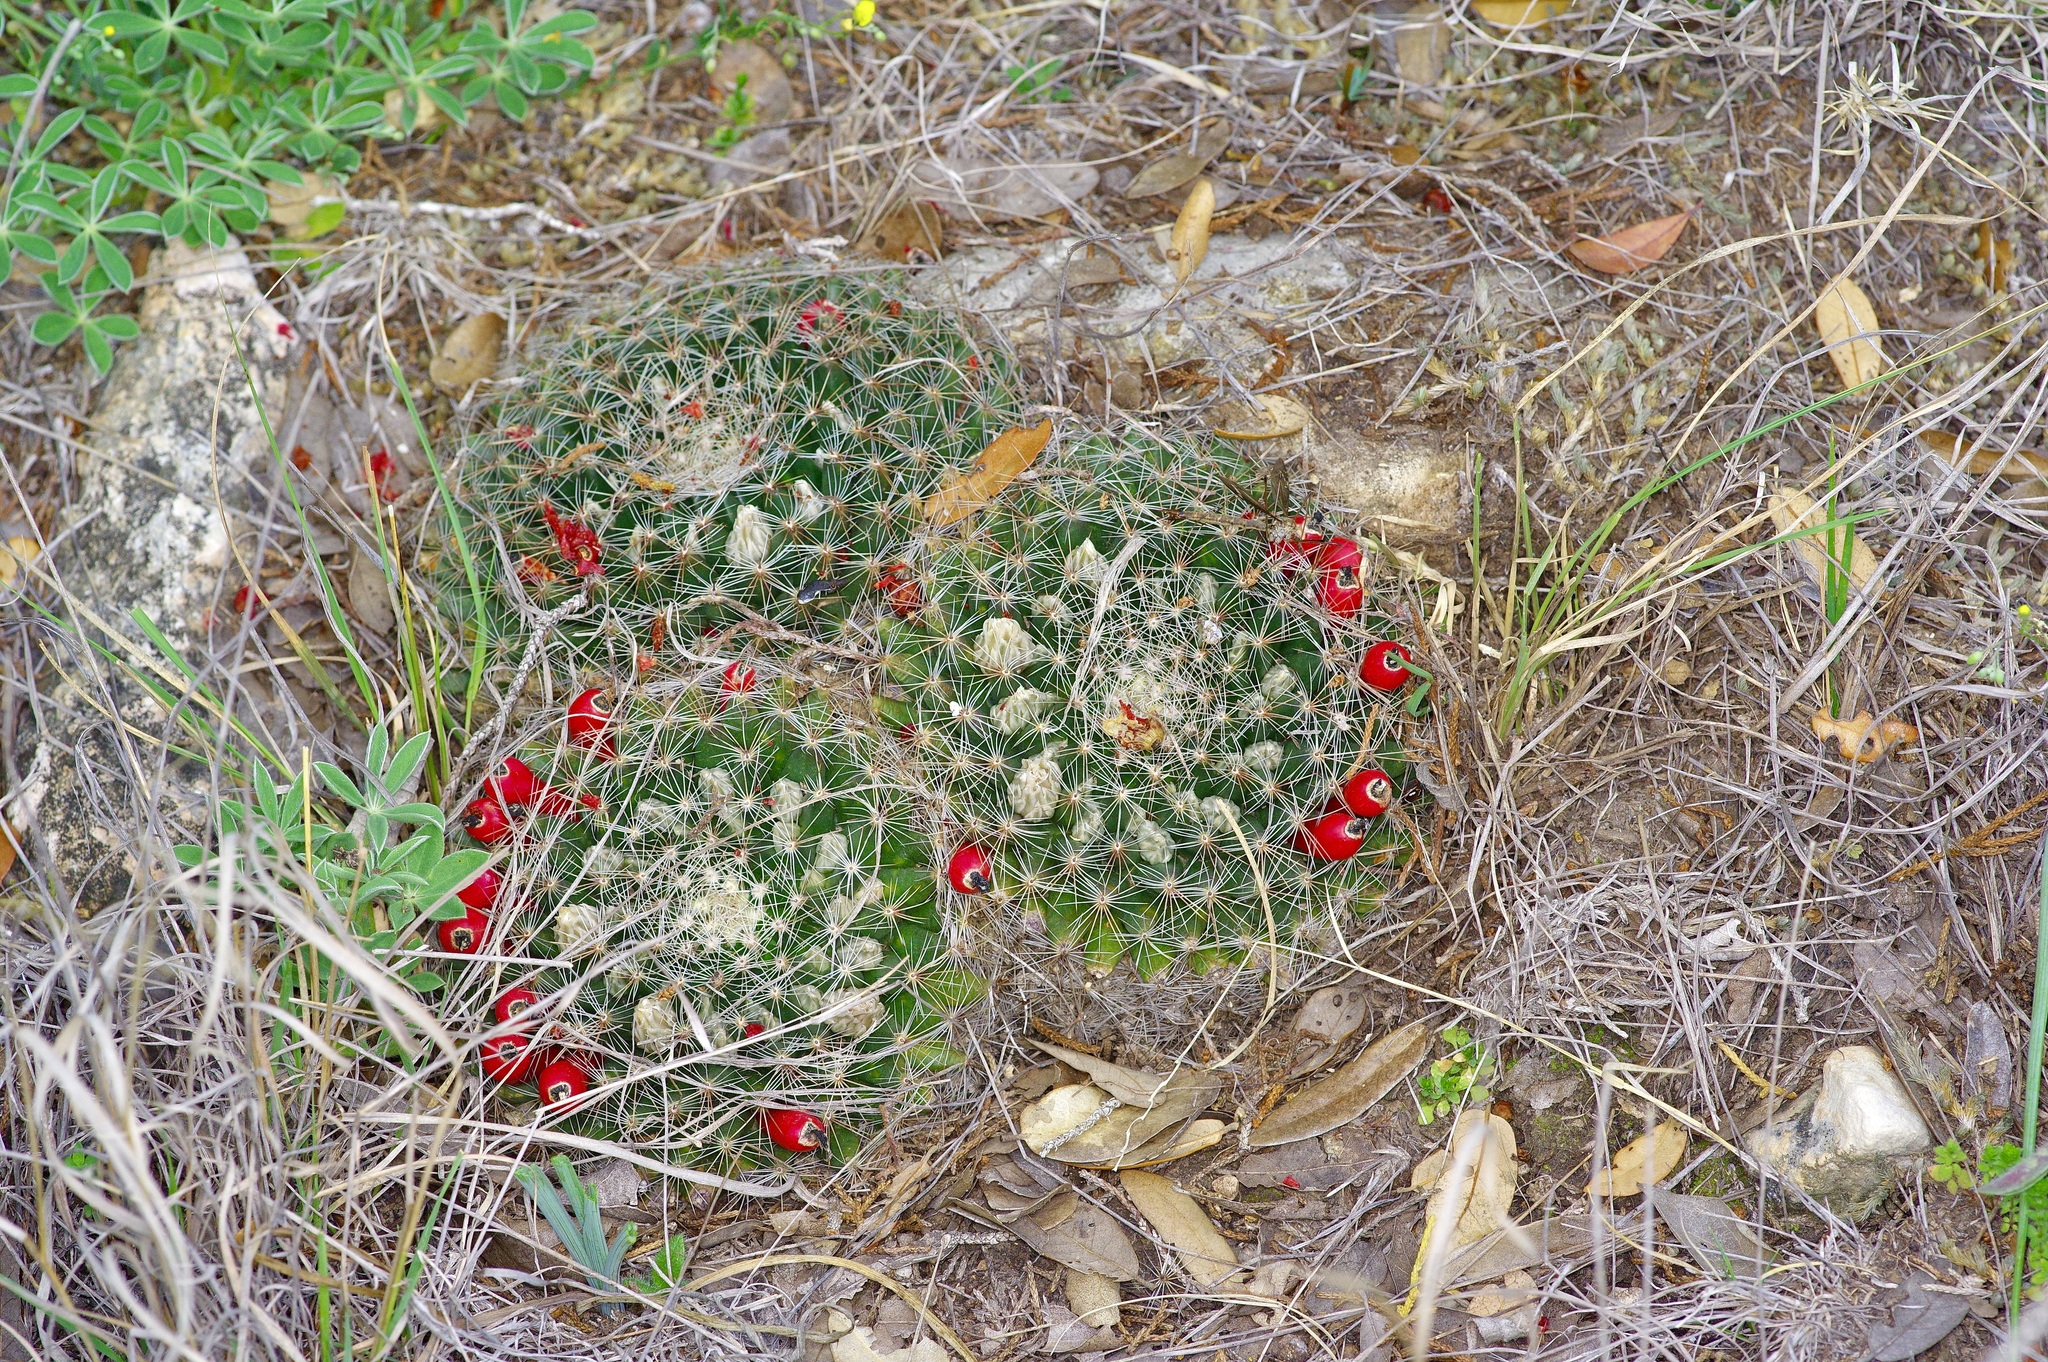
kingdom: Plantae
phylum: Tracheophyta
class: Magnoliopsida
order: Caryophyllales
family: Cactaceae
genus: Mammillaria
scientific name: Mammillaria heyderi
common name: Little nipple cactus
